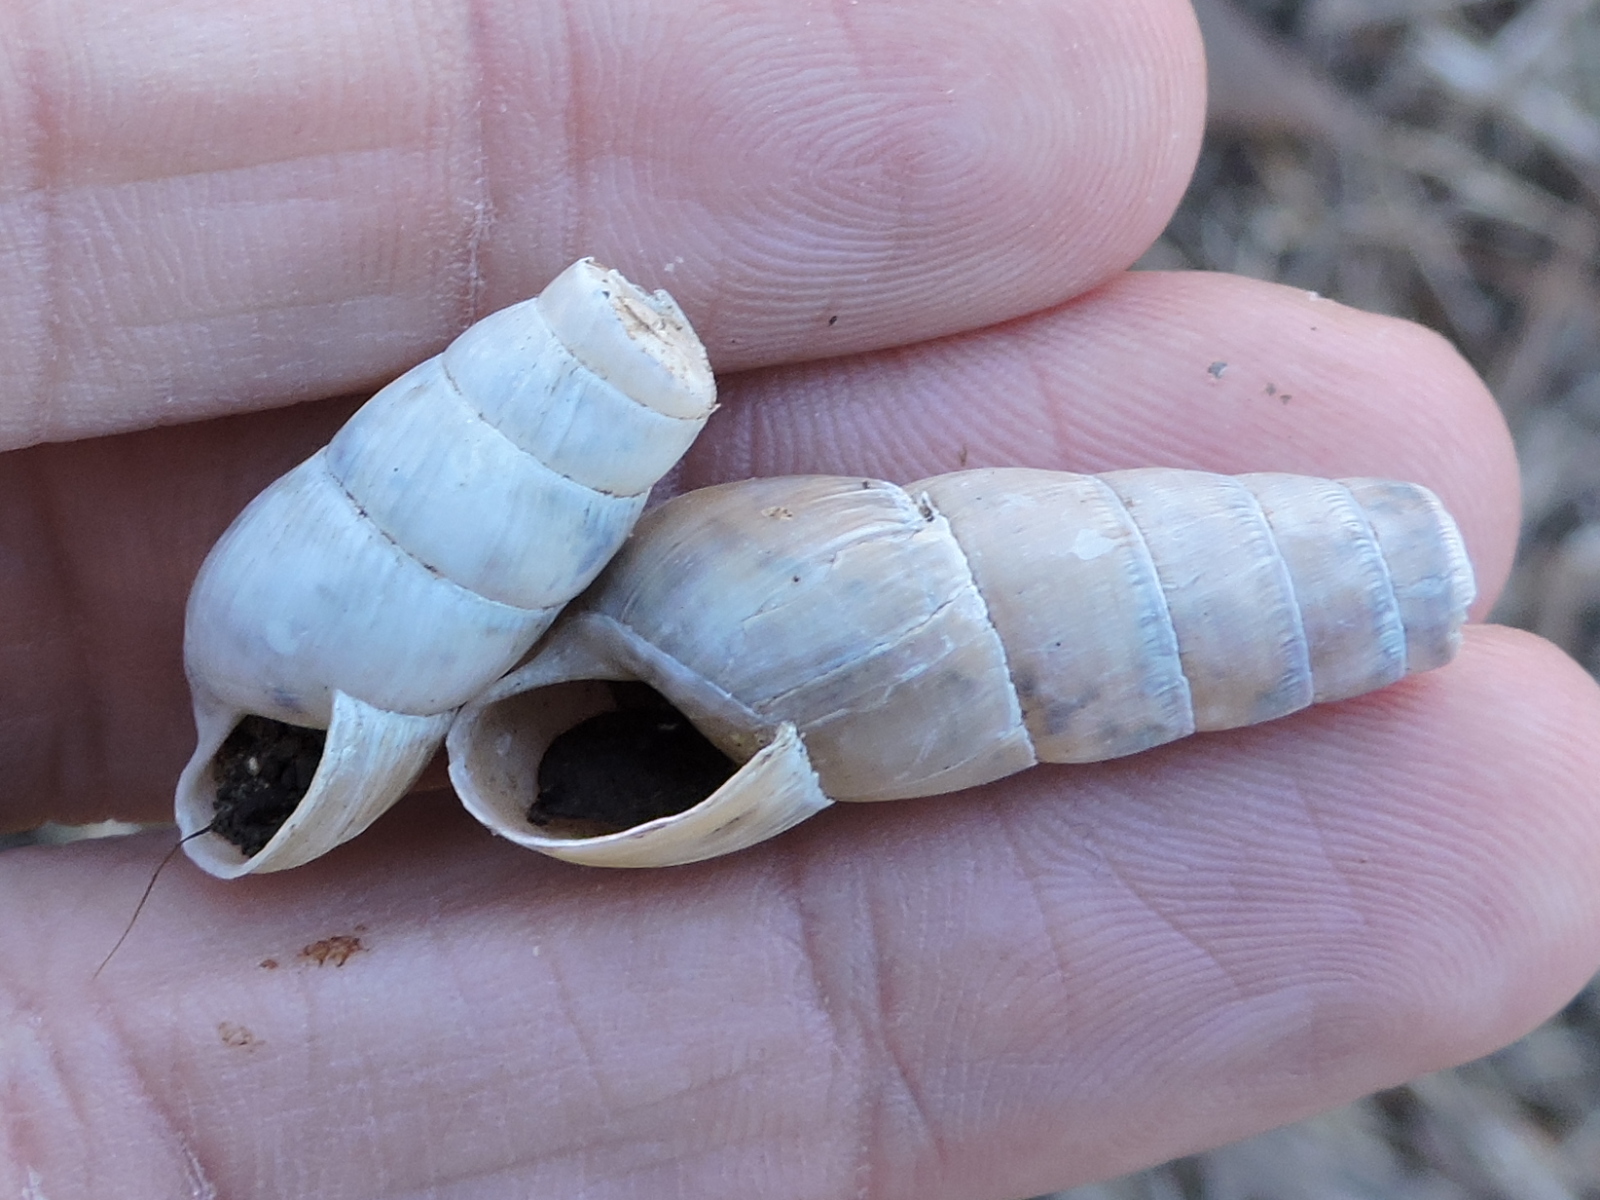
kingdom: Animalia
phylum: Mollusca
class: Gastropoda
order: Stylommatophora
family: Achatinidae
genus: Rumina
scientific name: Rumina decollata
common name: Decollate snail
